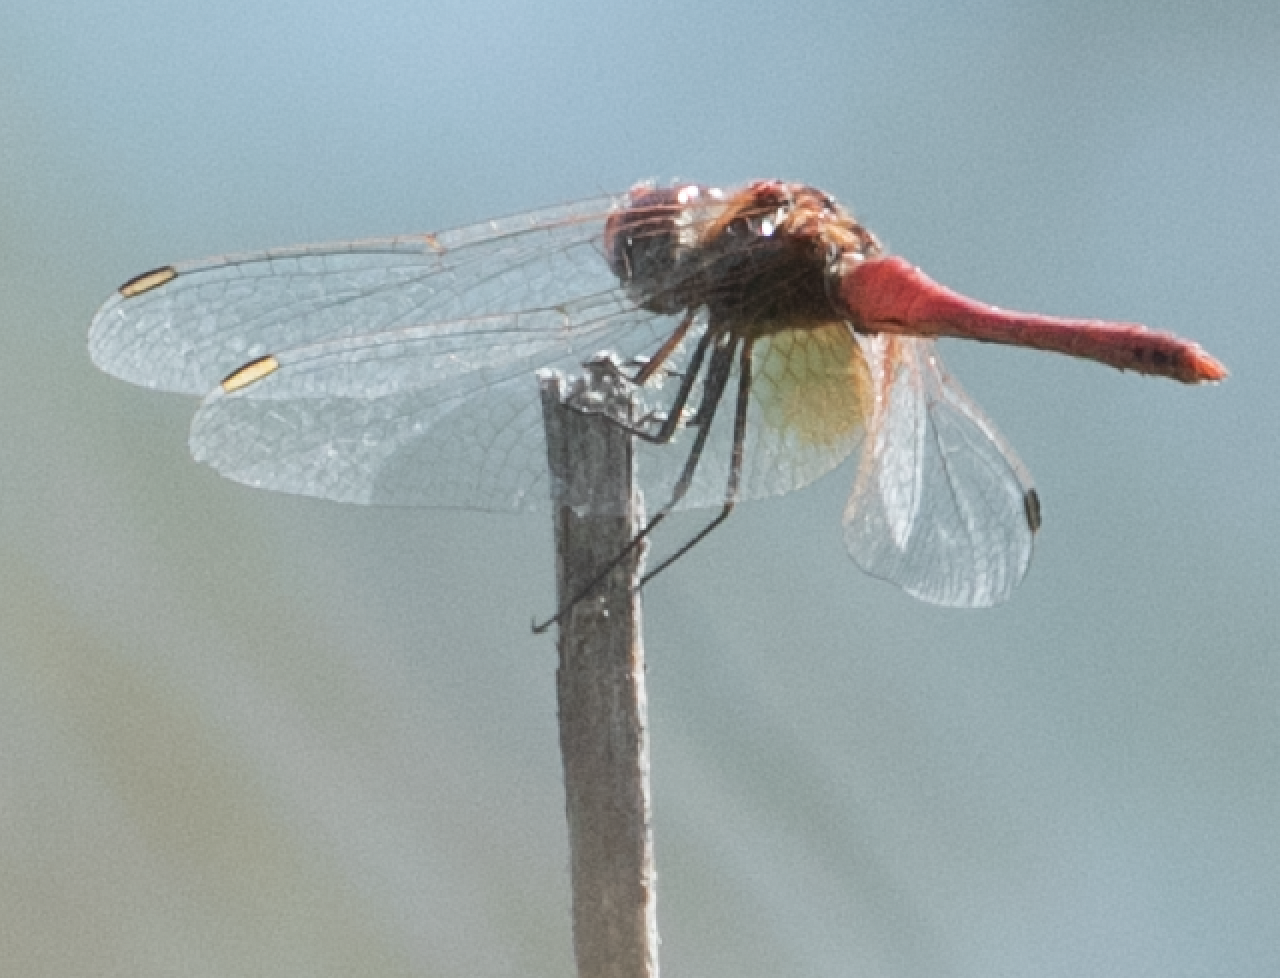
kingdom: Animalia
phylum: Arthropoda
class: Insecta
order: Odonata
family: Libellulidae
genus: Sympetrum
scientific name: Sympetrum fonscolombii
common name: Red-veined darter
